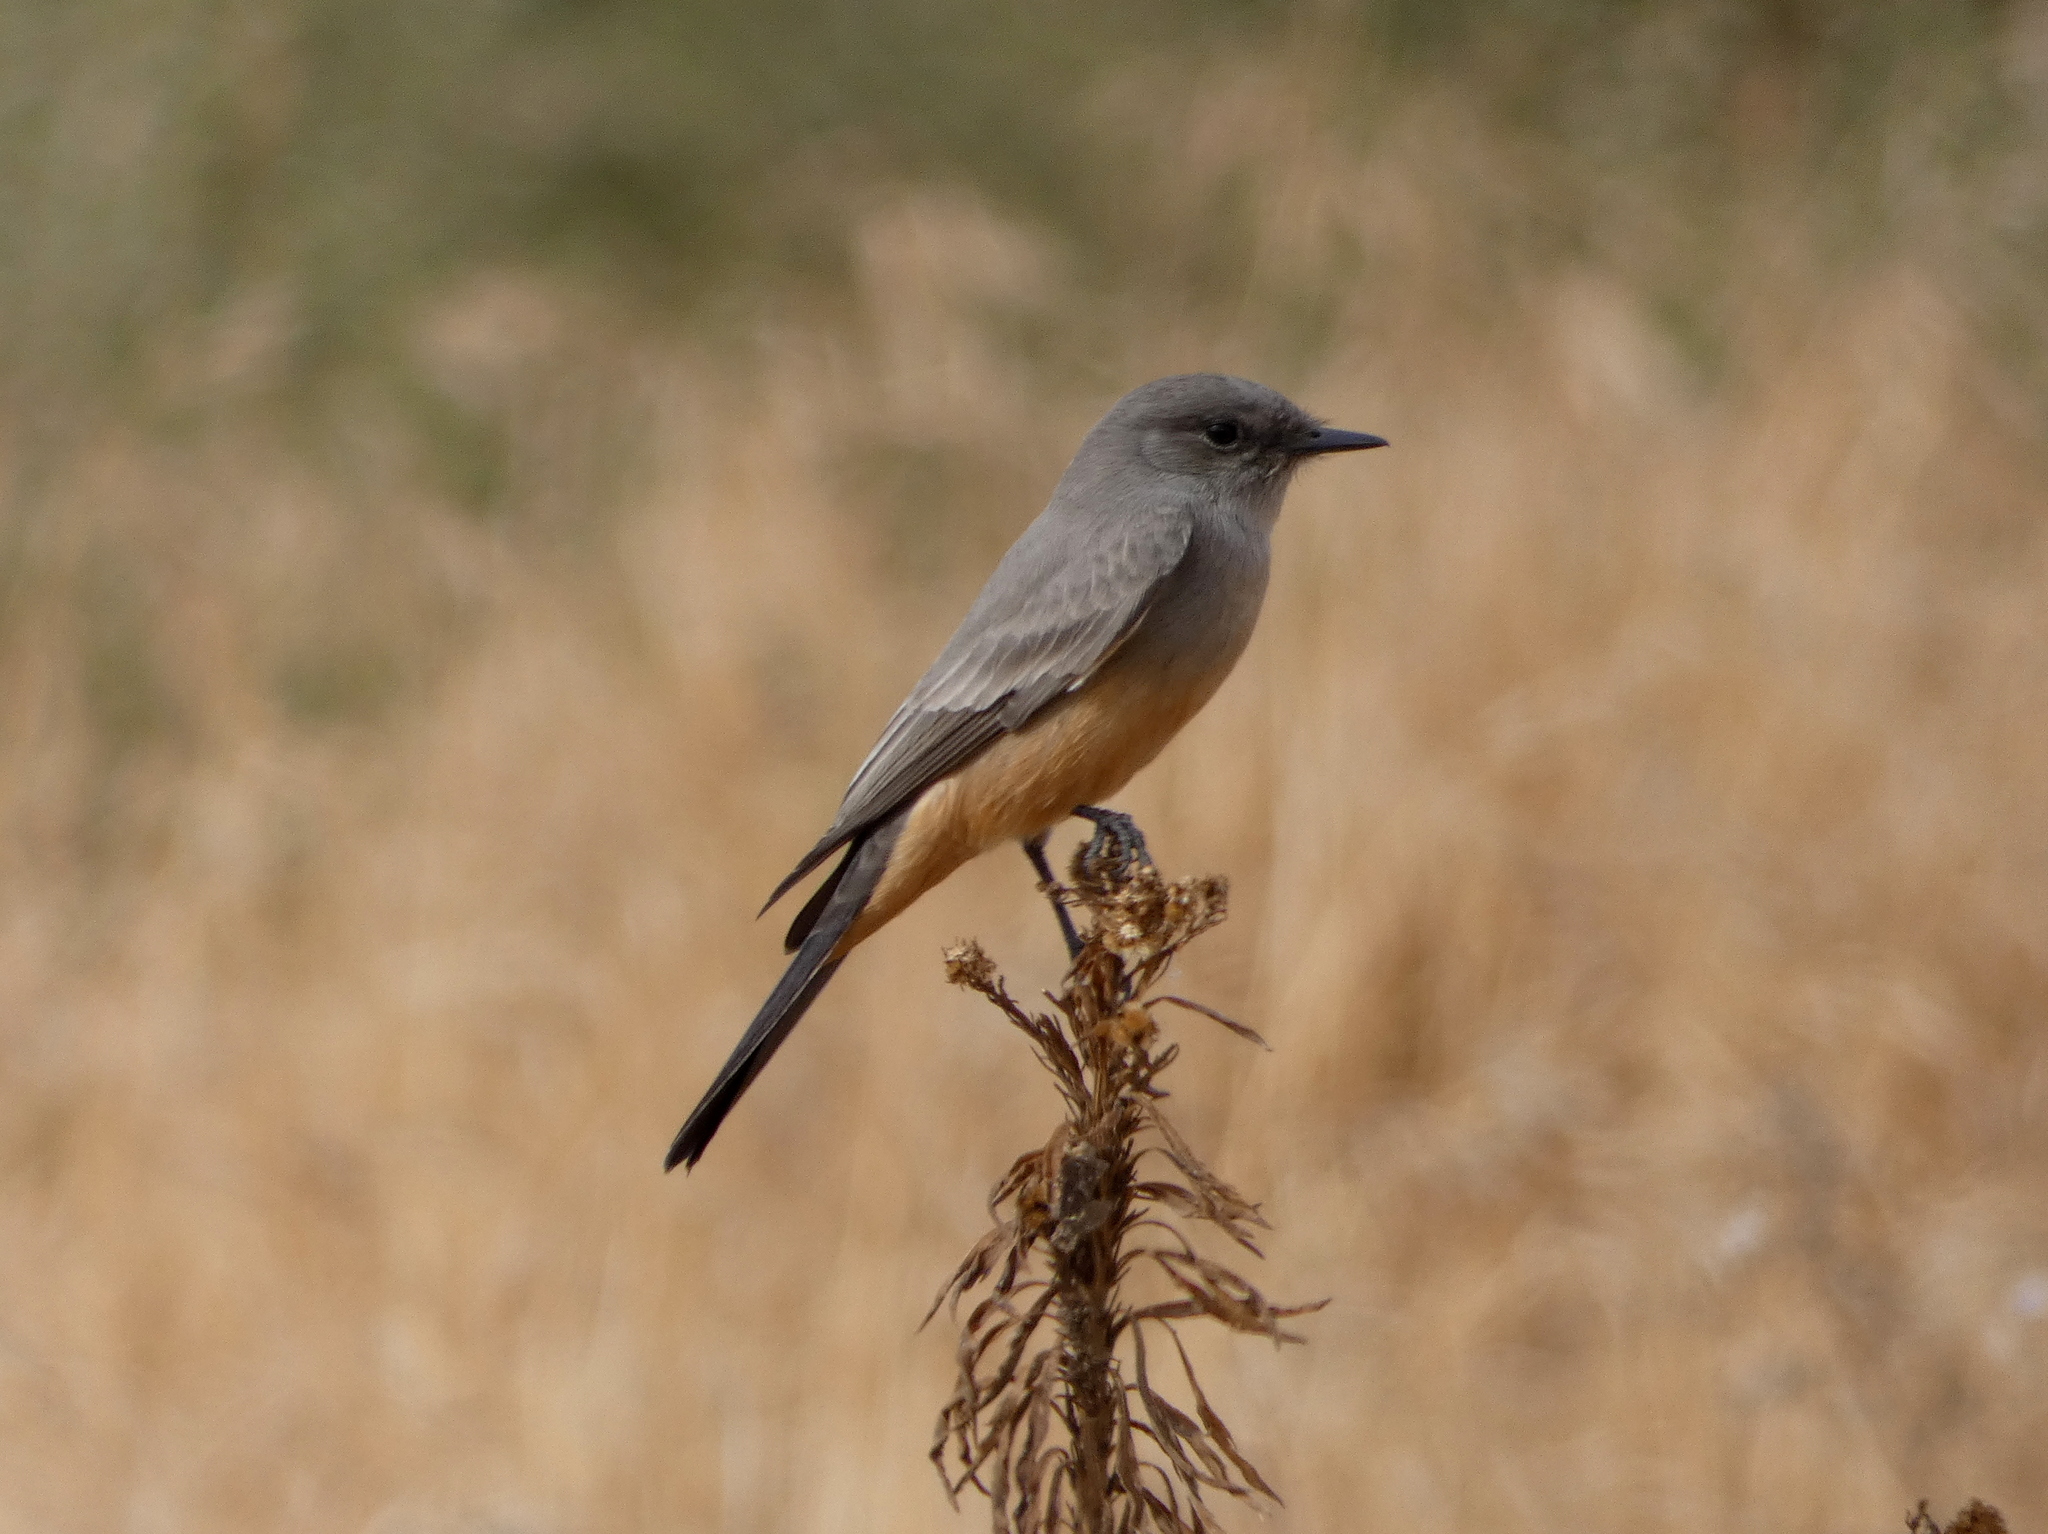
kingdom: Animalia
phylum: Chordata
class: Aves
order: Passeriformes
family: Tyrannidae
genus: Sayornis
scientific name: Sayornis saya
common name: Say's phoebe
